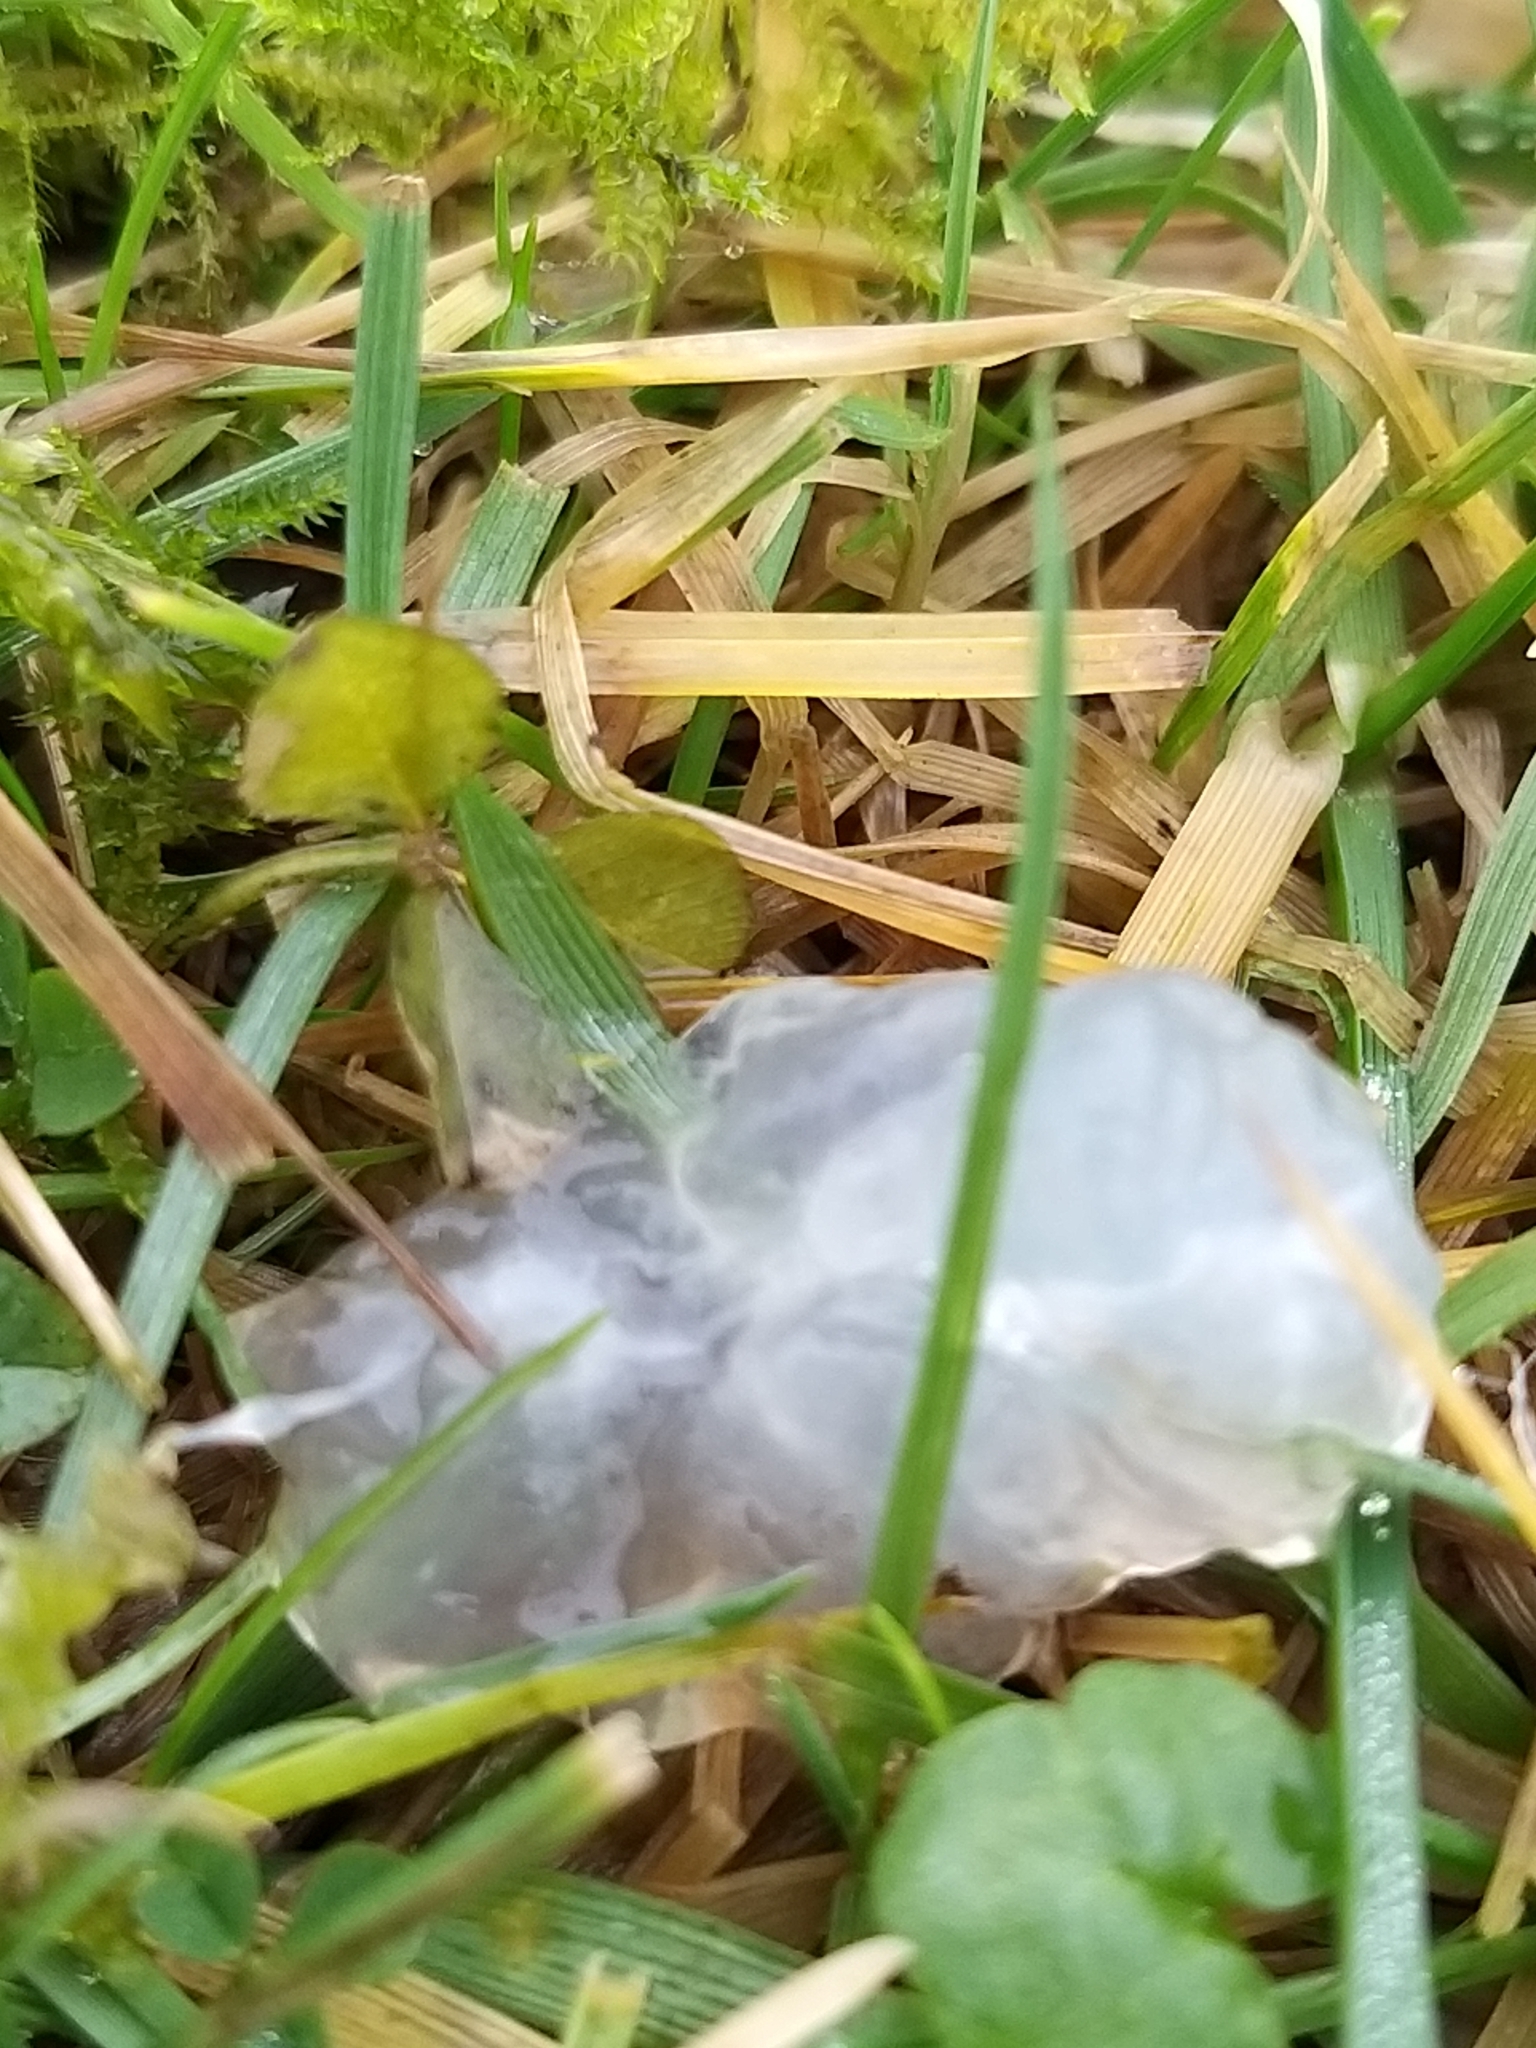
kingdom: Animalia
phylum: Chordata
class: Amphibia
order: Anura
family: Ranidae
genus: Rana
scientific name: Rana temporaria
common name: Common frog
